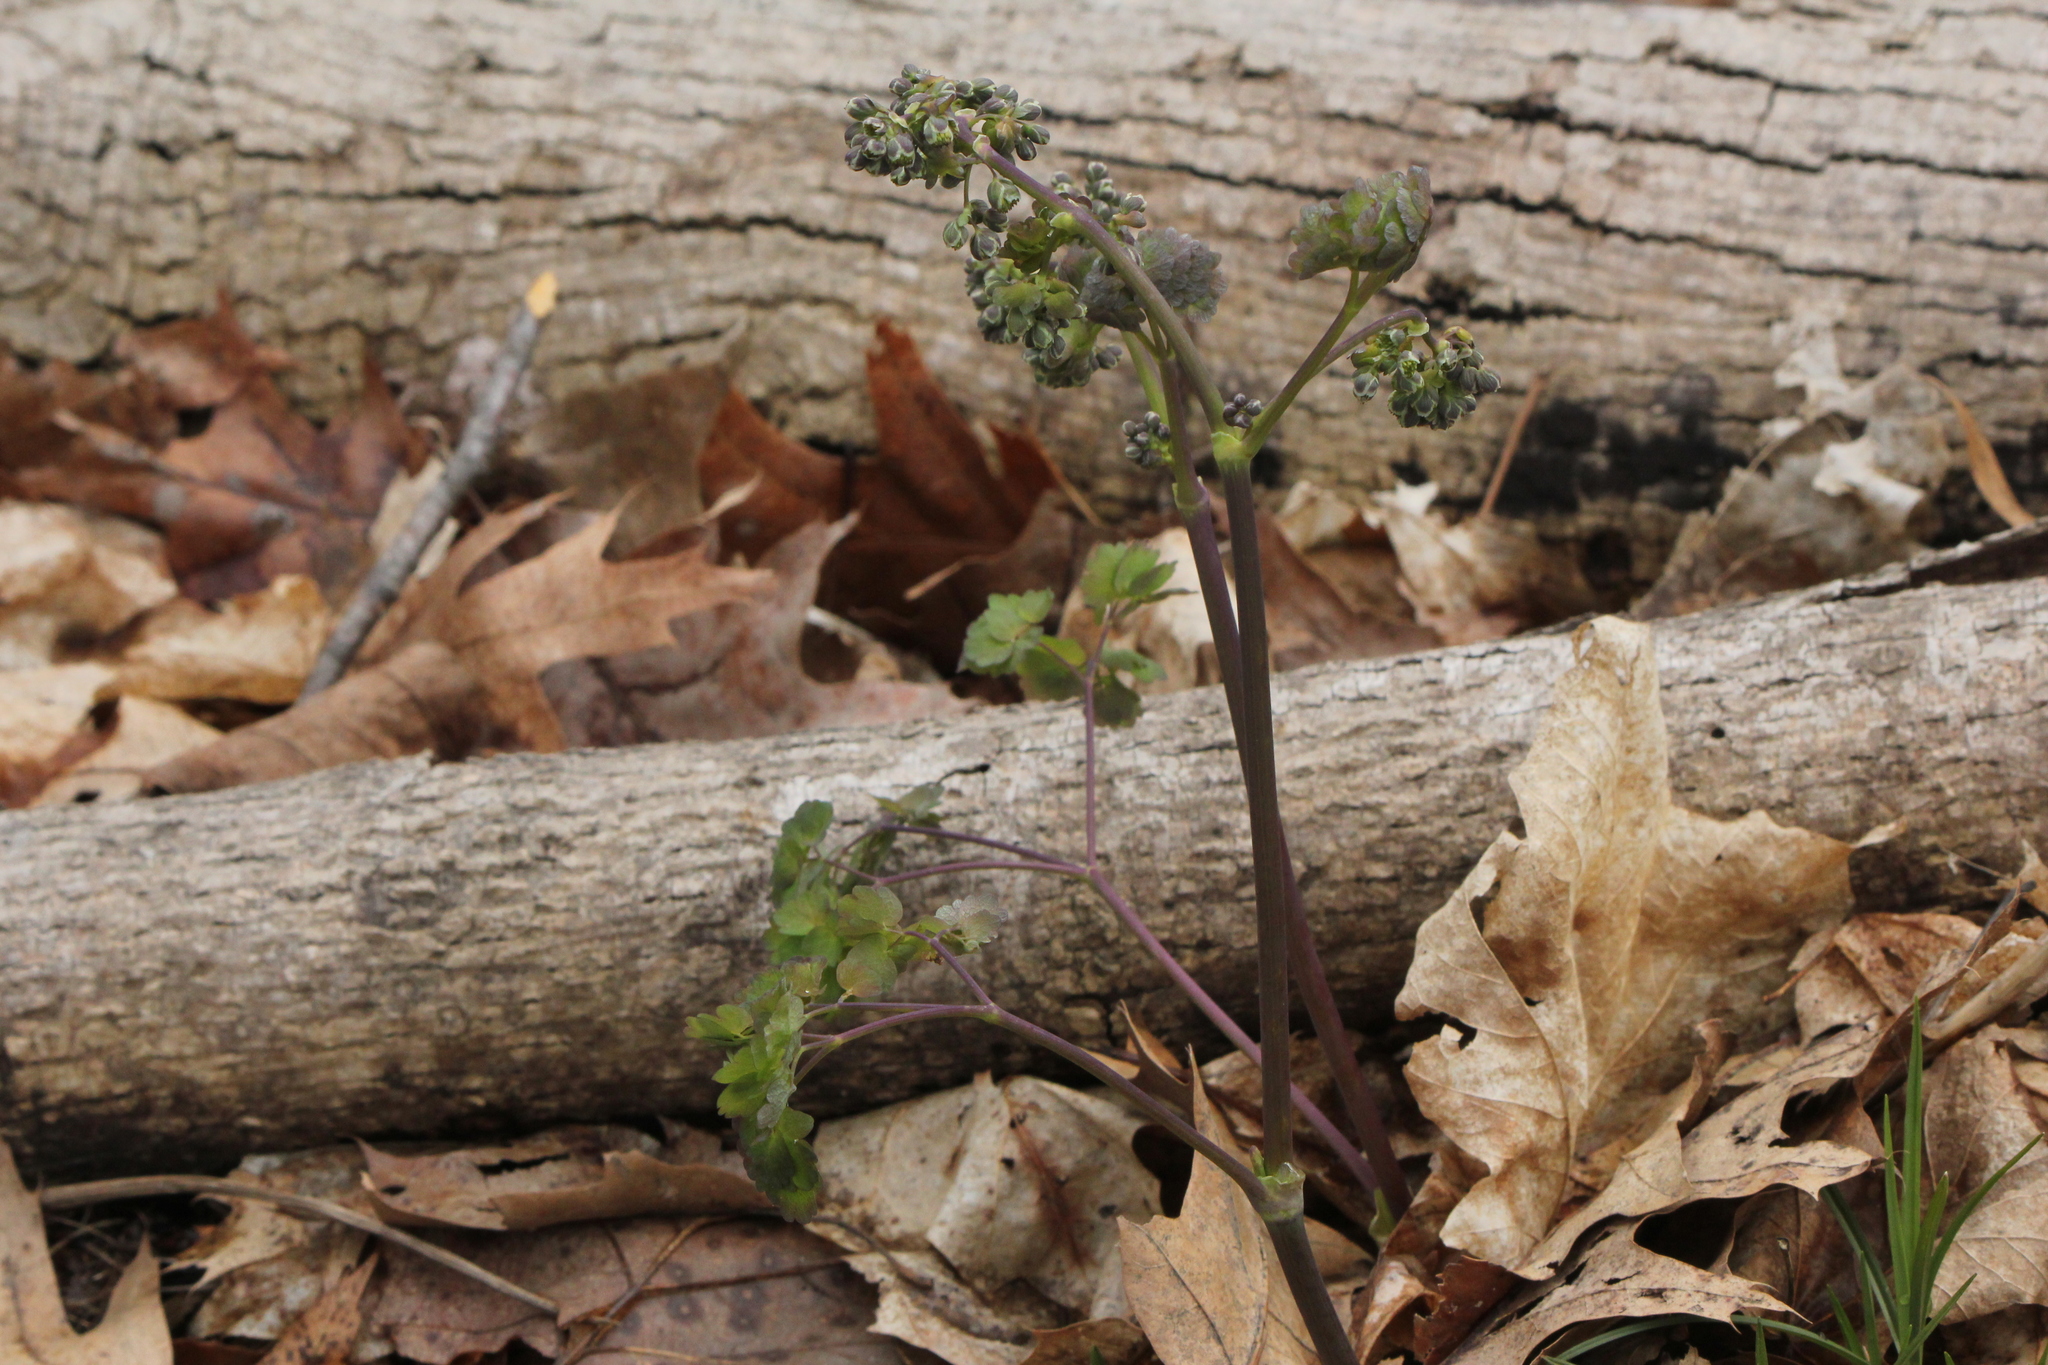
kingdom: Plantae
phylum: Tracheophyta
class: Magnoliopsida
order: Ranunculales
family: Ranunculaceae
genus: Thalictrum
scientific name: Thalictrum dioicum
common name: Early meadow-rue
